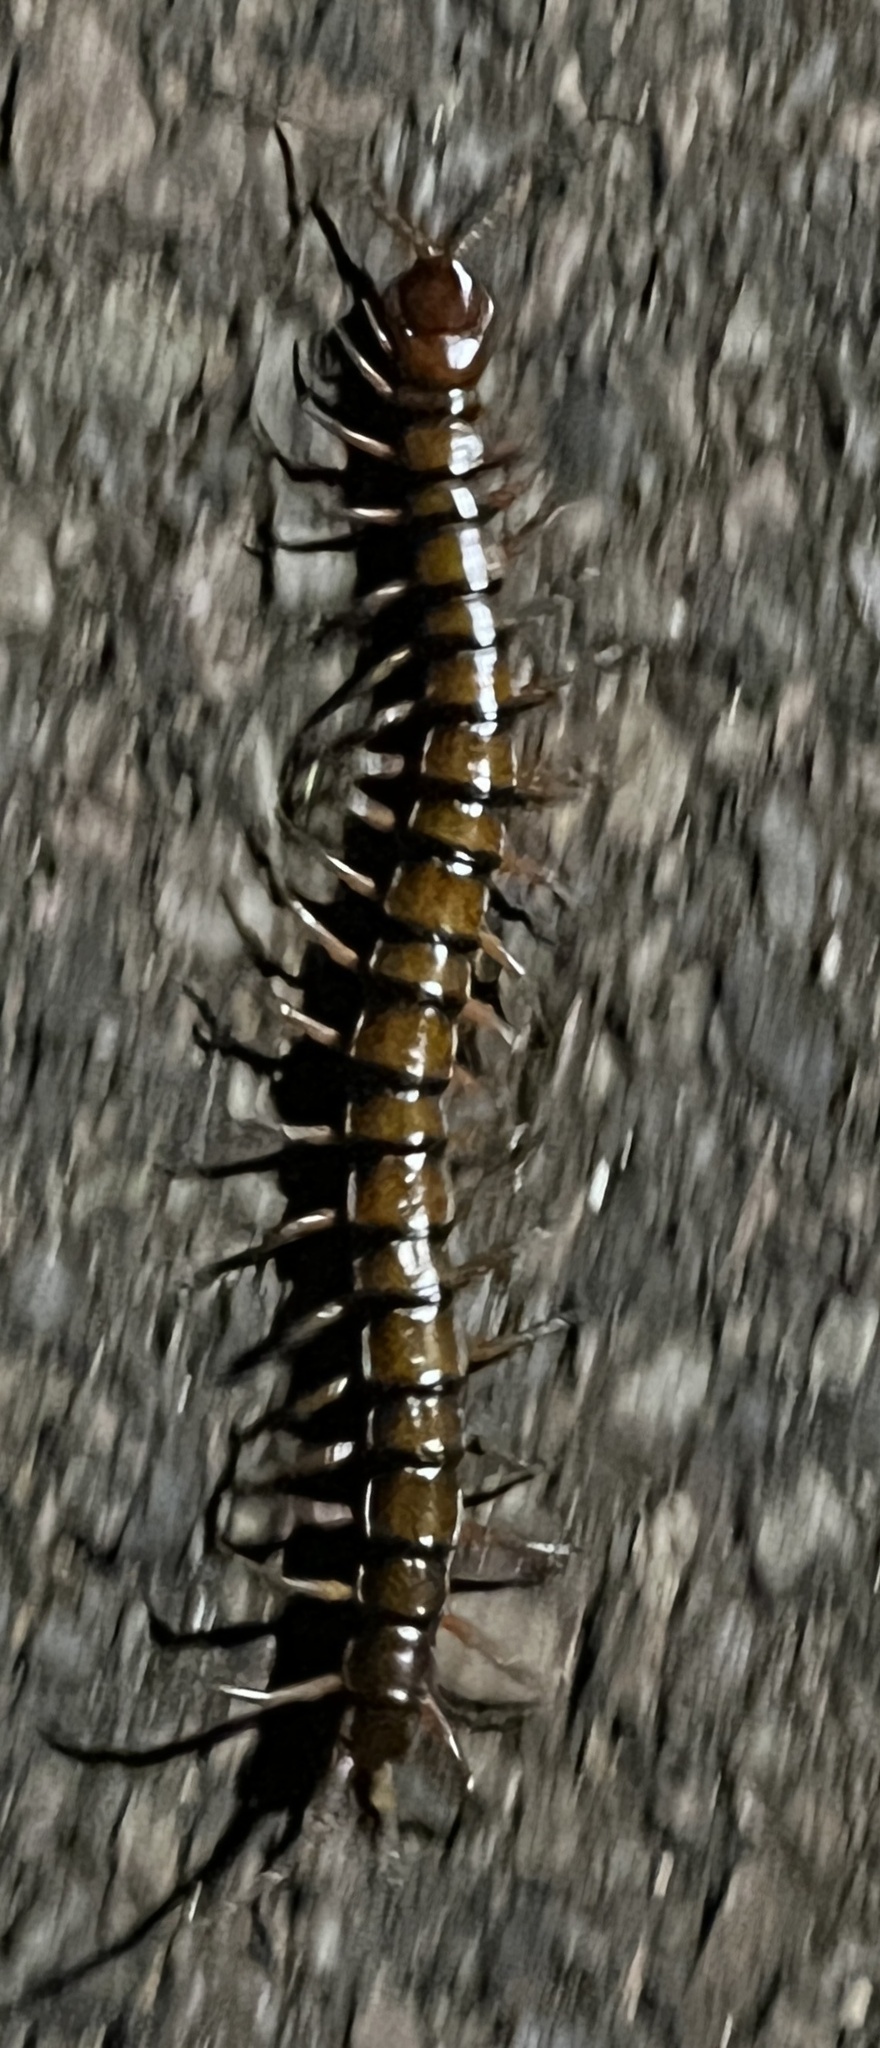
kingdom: Animalia
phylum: Arthropoda
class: Chilopoda
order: Scolopendromorpha
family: Scolopendridae
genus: Scolopendra
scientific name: Scolopendra subspinipes
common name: Centipede
